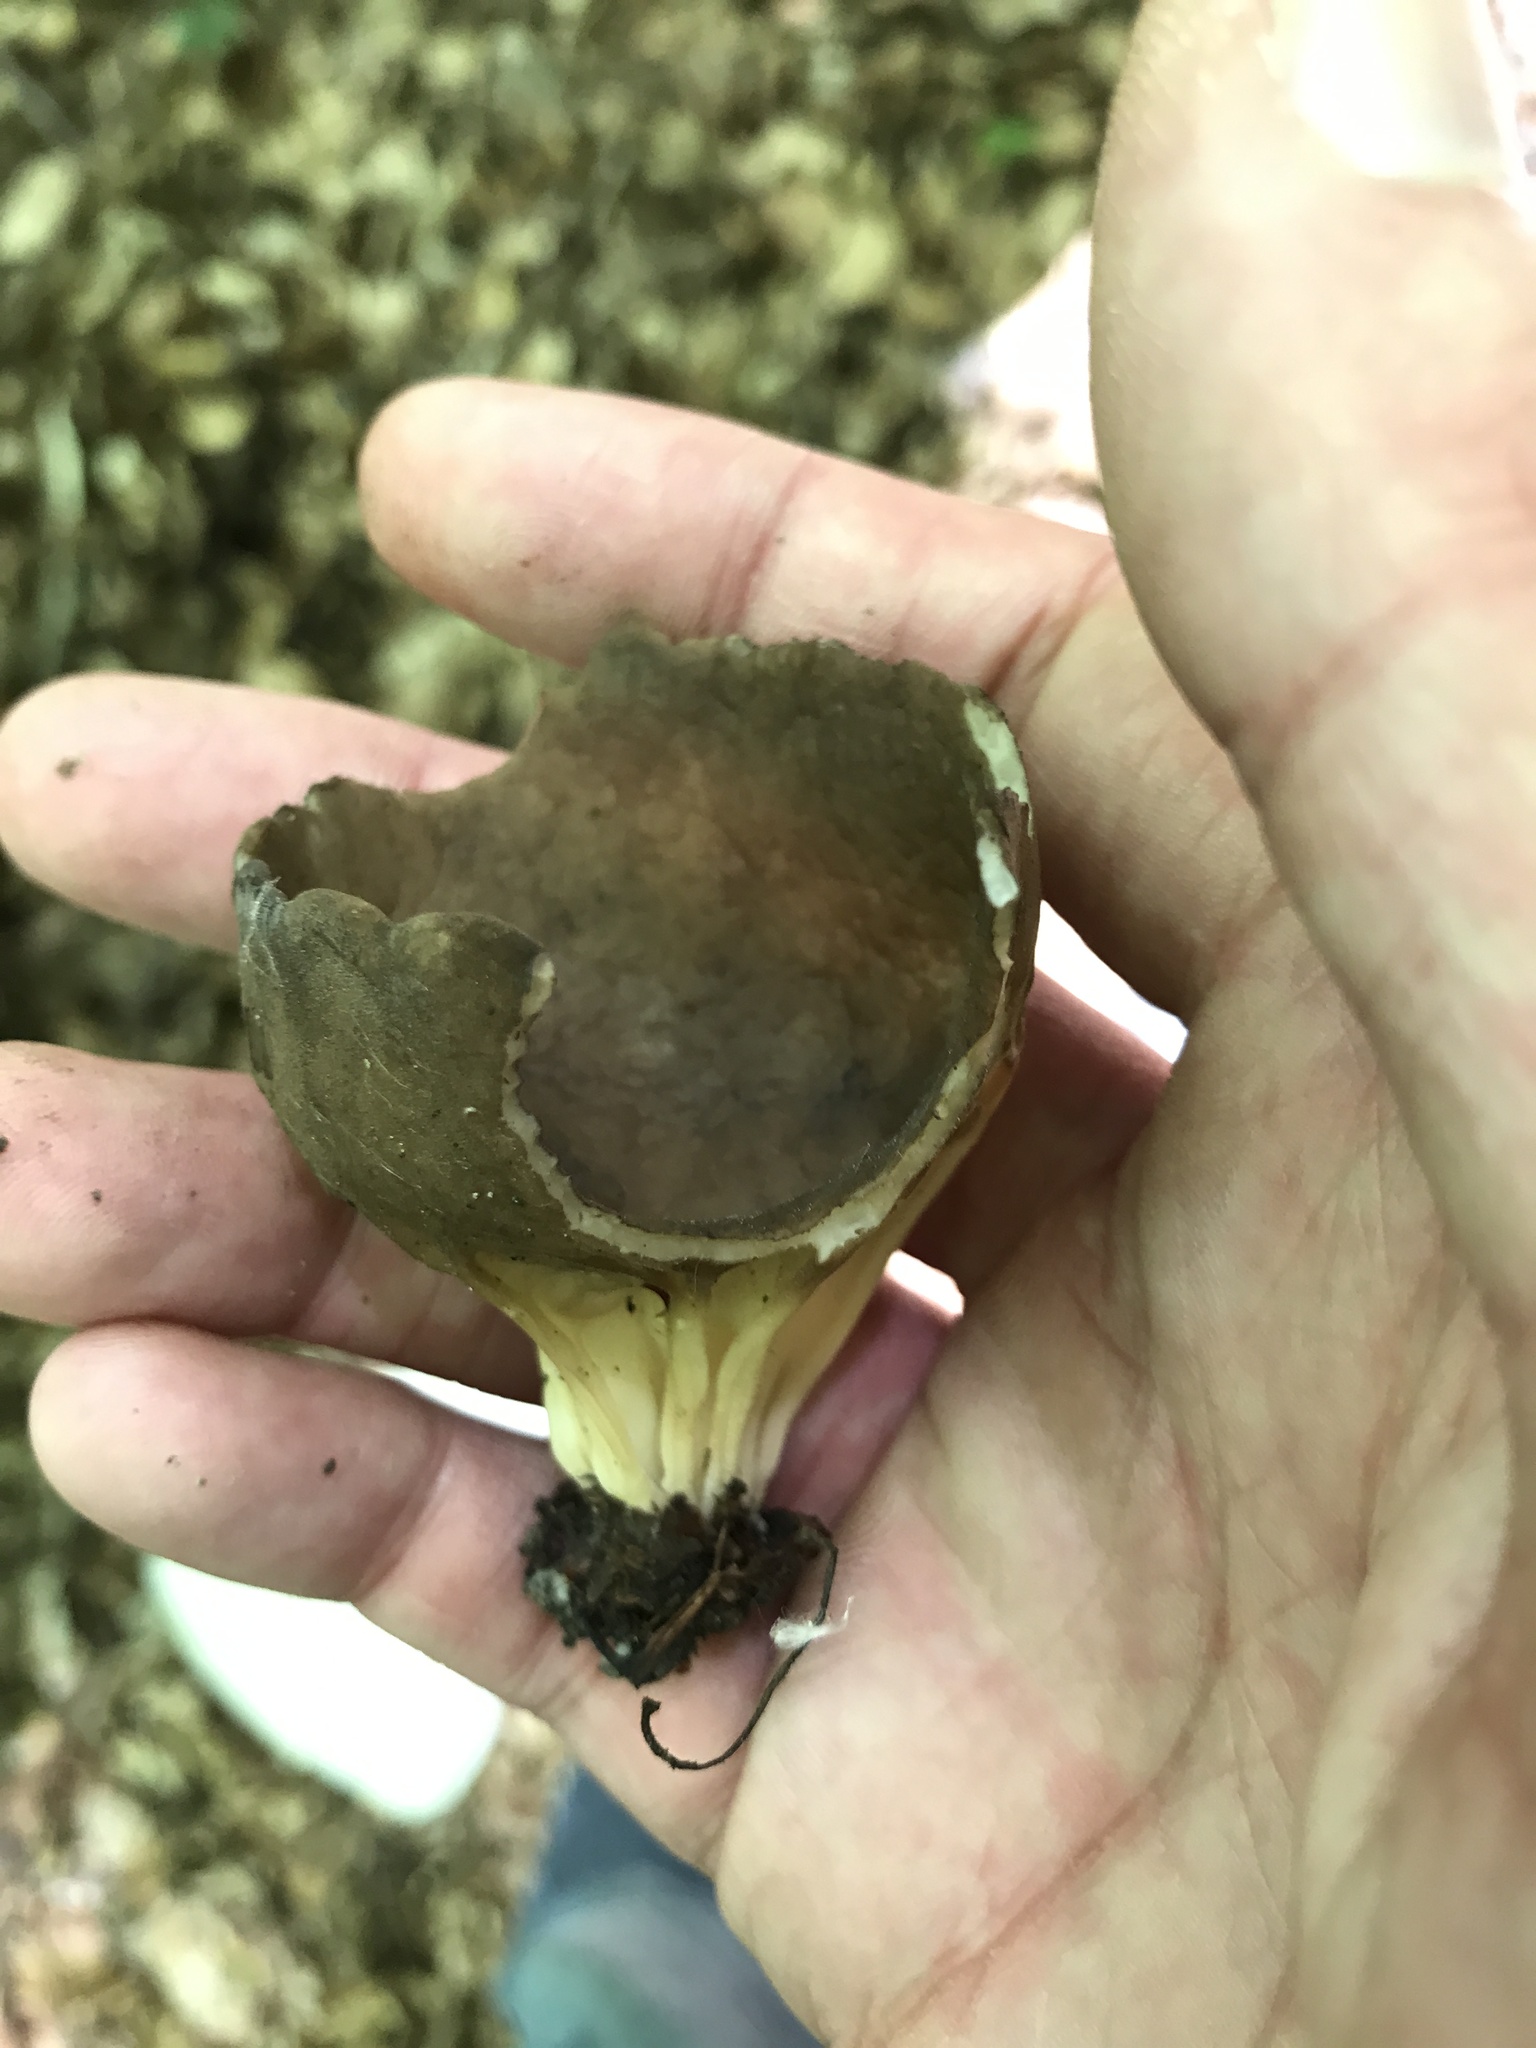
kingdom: Fungi
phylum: Ascomycota
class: Pezizomycetes
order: Pezizales
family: Helvellaceae
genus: Helvella
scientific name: Helvella acetabulum
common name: Vinegar cup
